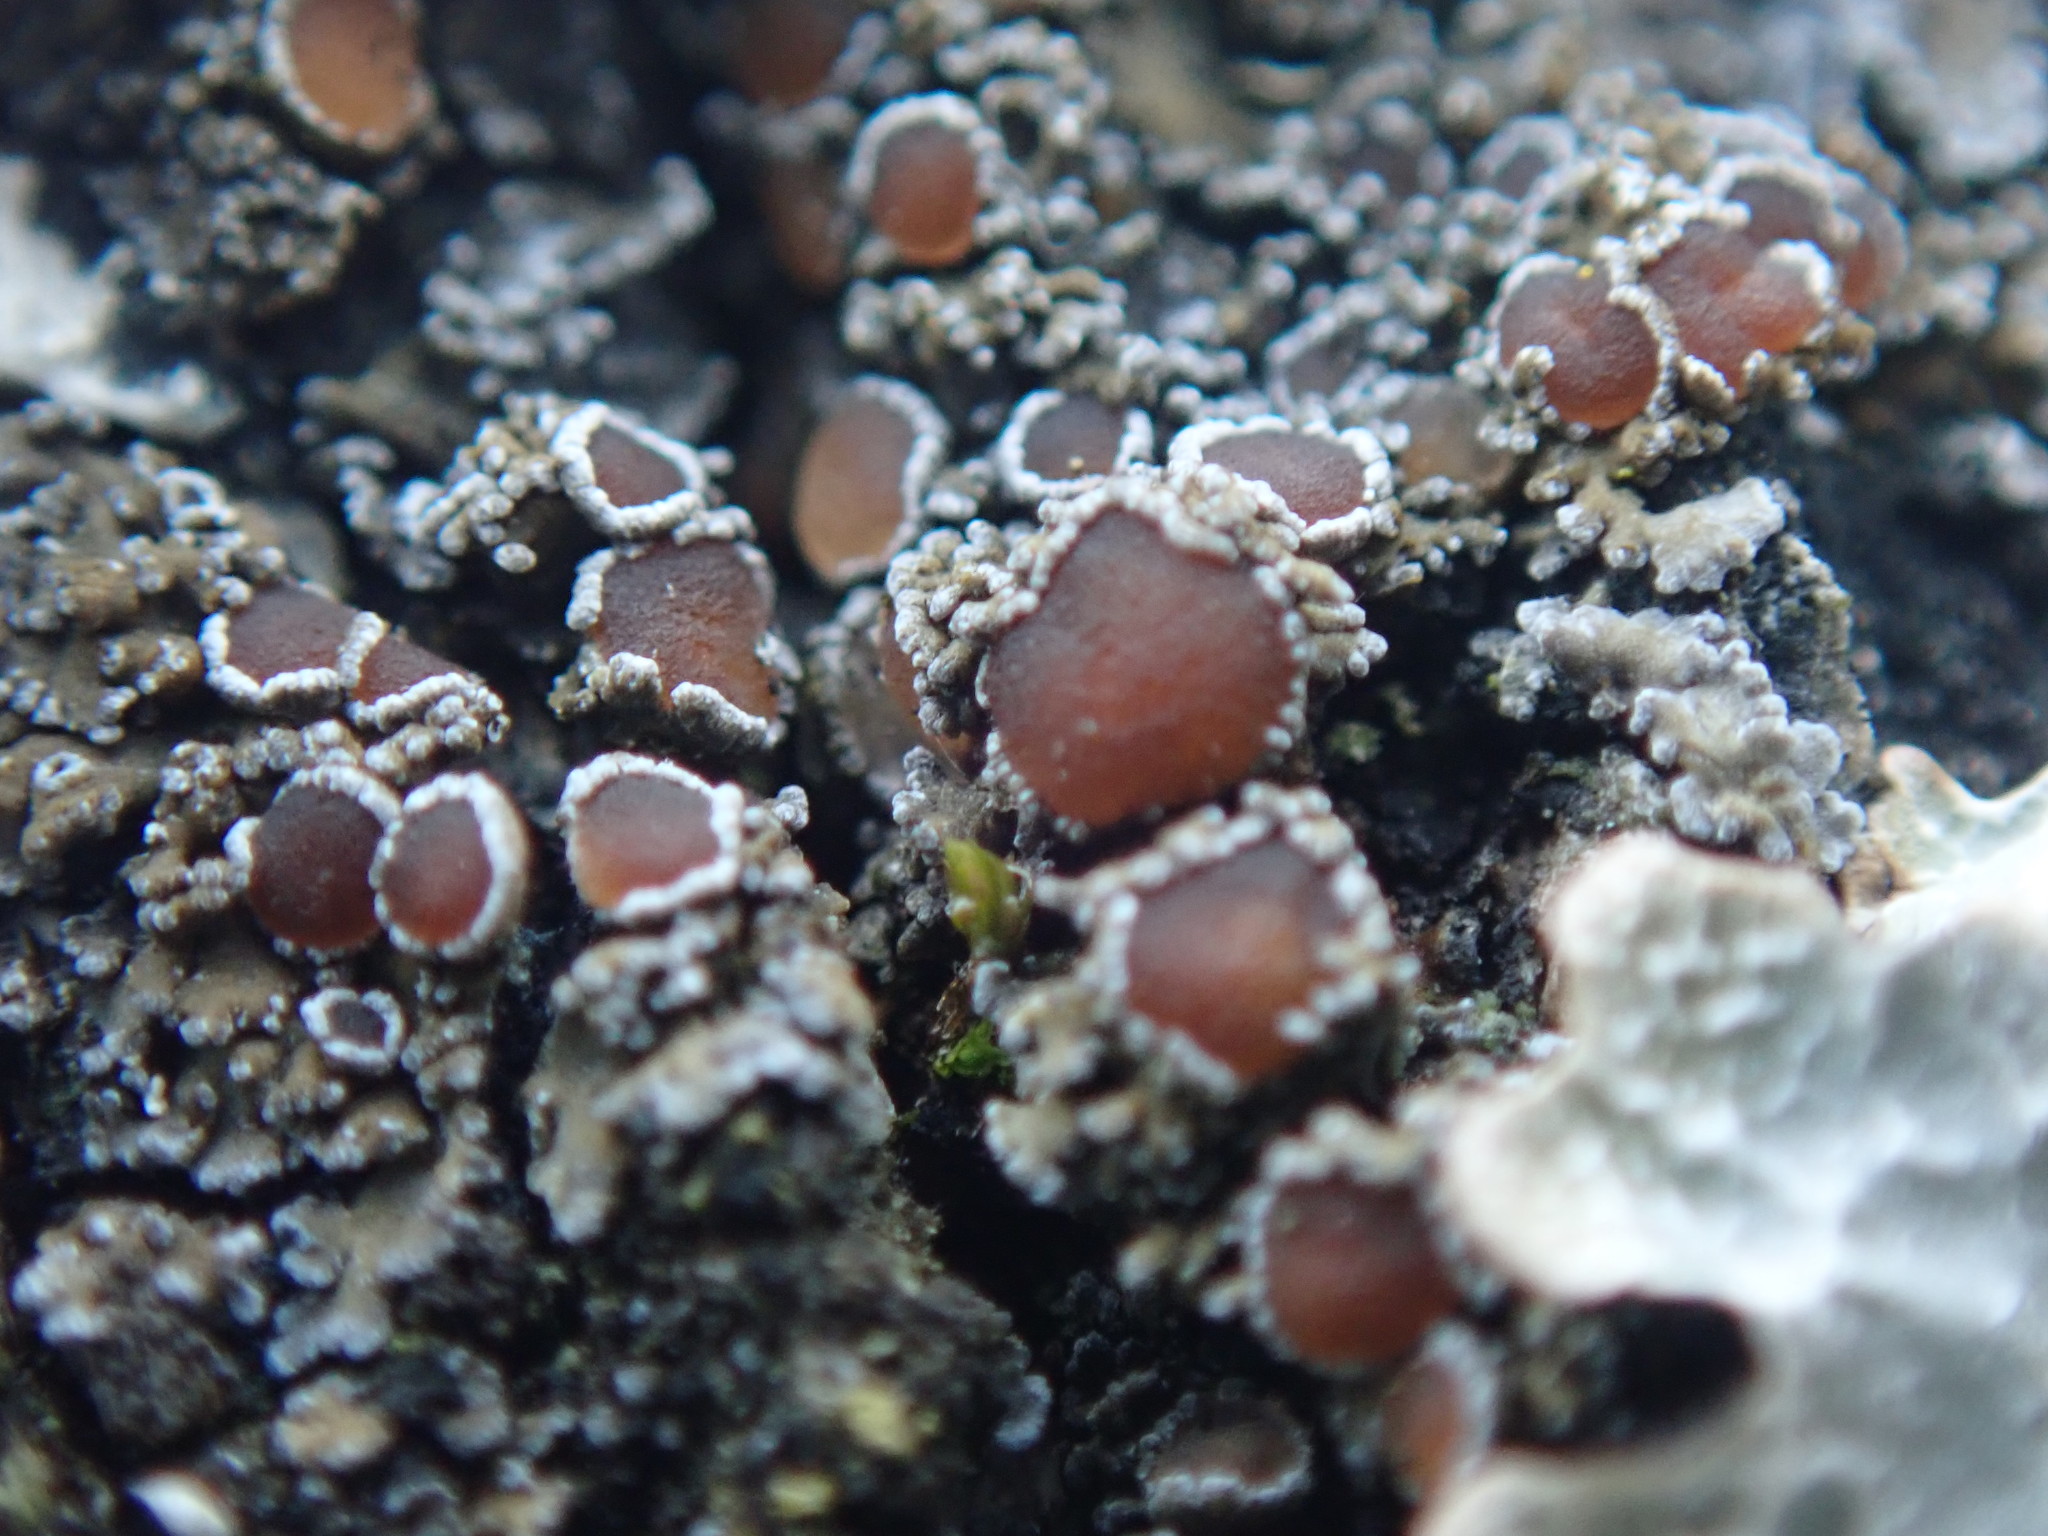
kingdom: Fungi
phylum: Ascomycota
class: Lecanoromycetes
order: Peltigerales
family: Pannariaceae
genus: Protopannaria
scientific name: Protopannaria pezizoides
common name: Brown-gray m oss-shingle
